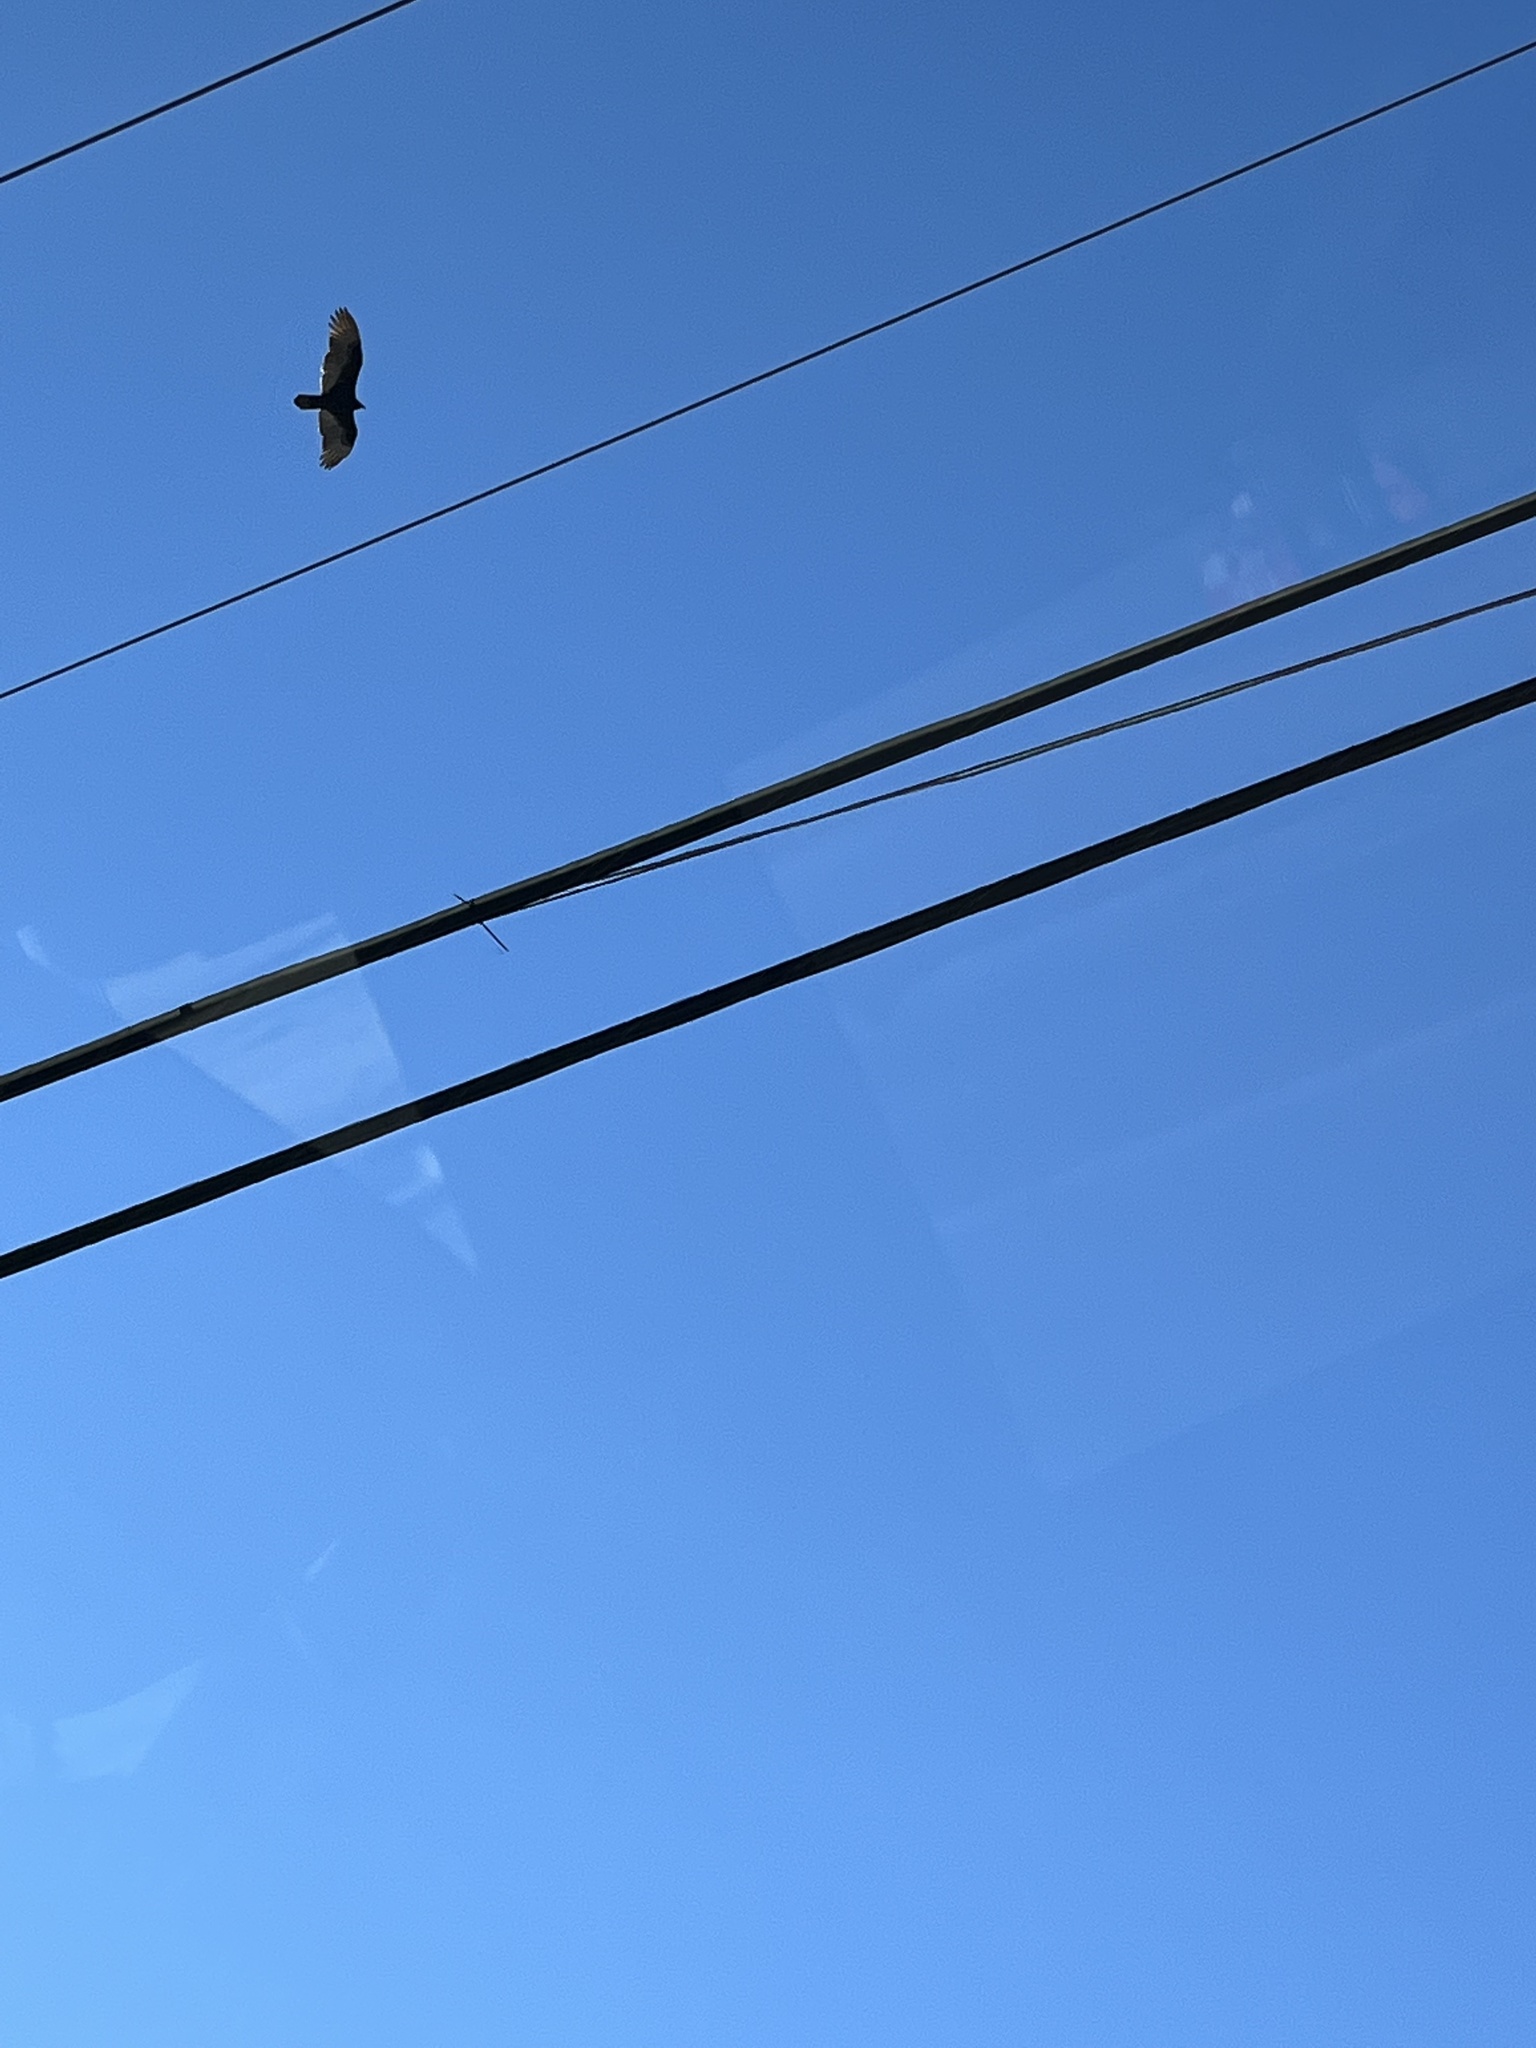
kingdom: Animalia
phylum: Chordata
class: Aves
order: Accipitriformes
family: Cathartidae
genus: Cathartes
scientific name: Cathartes aura
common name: Turkey vulture
